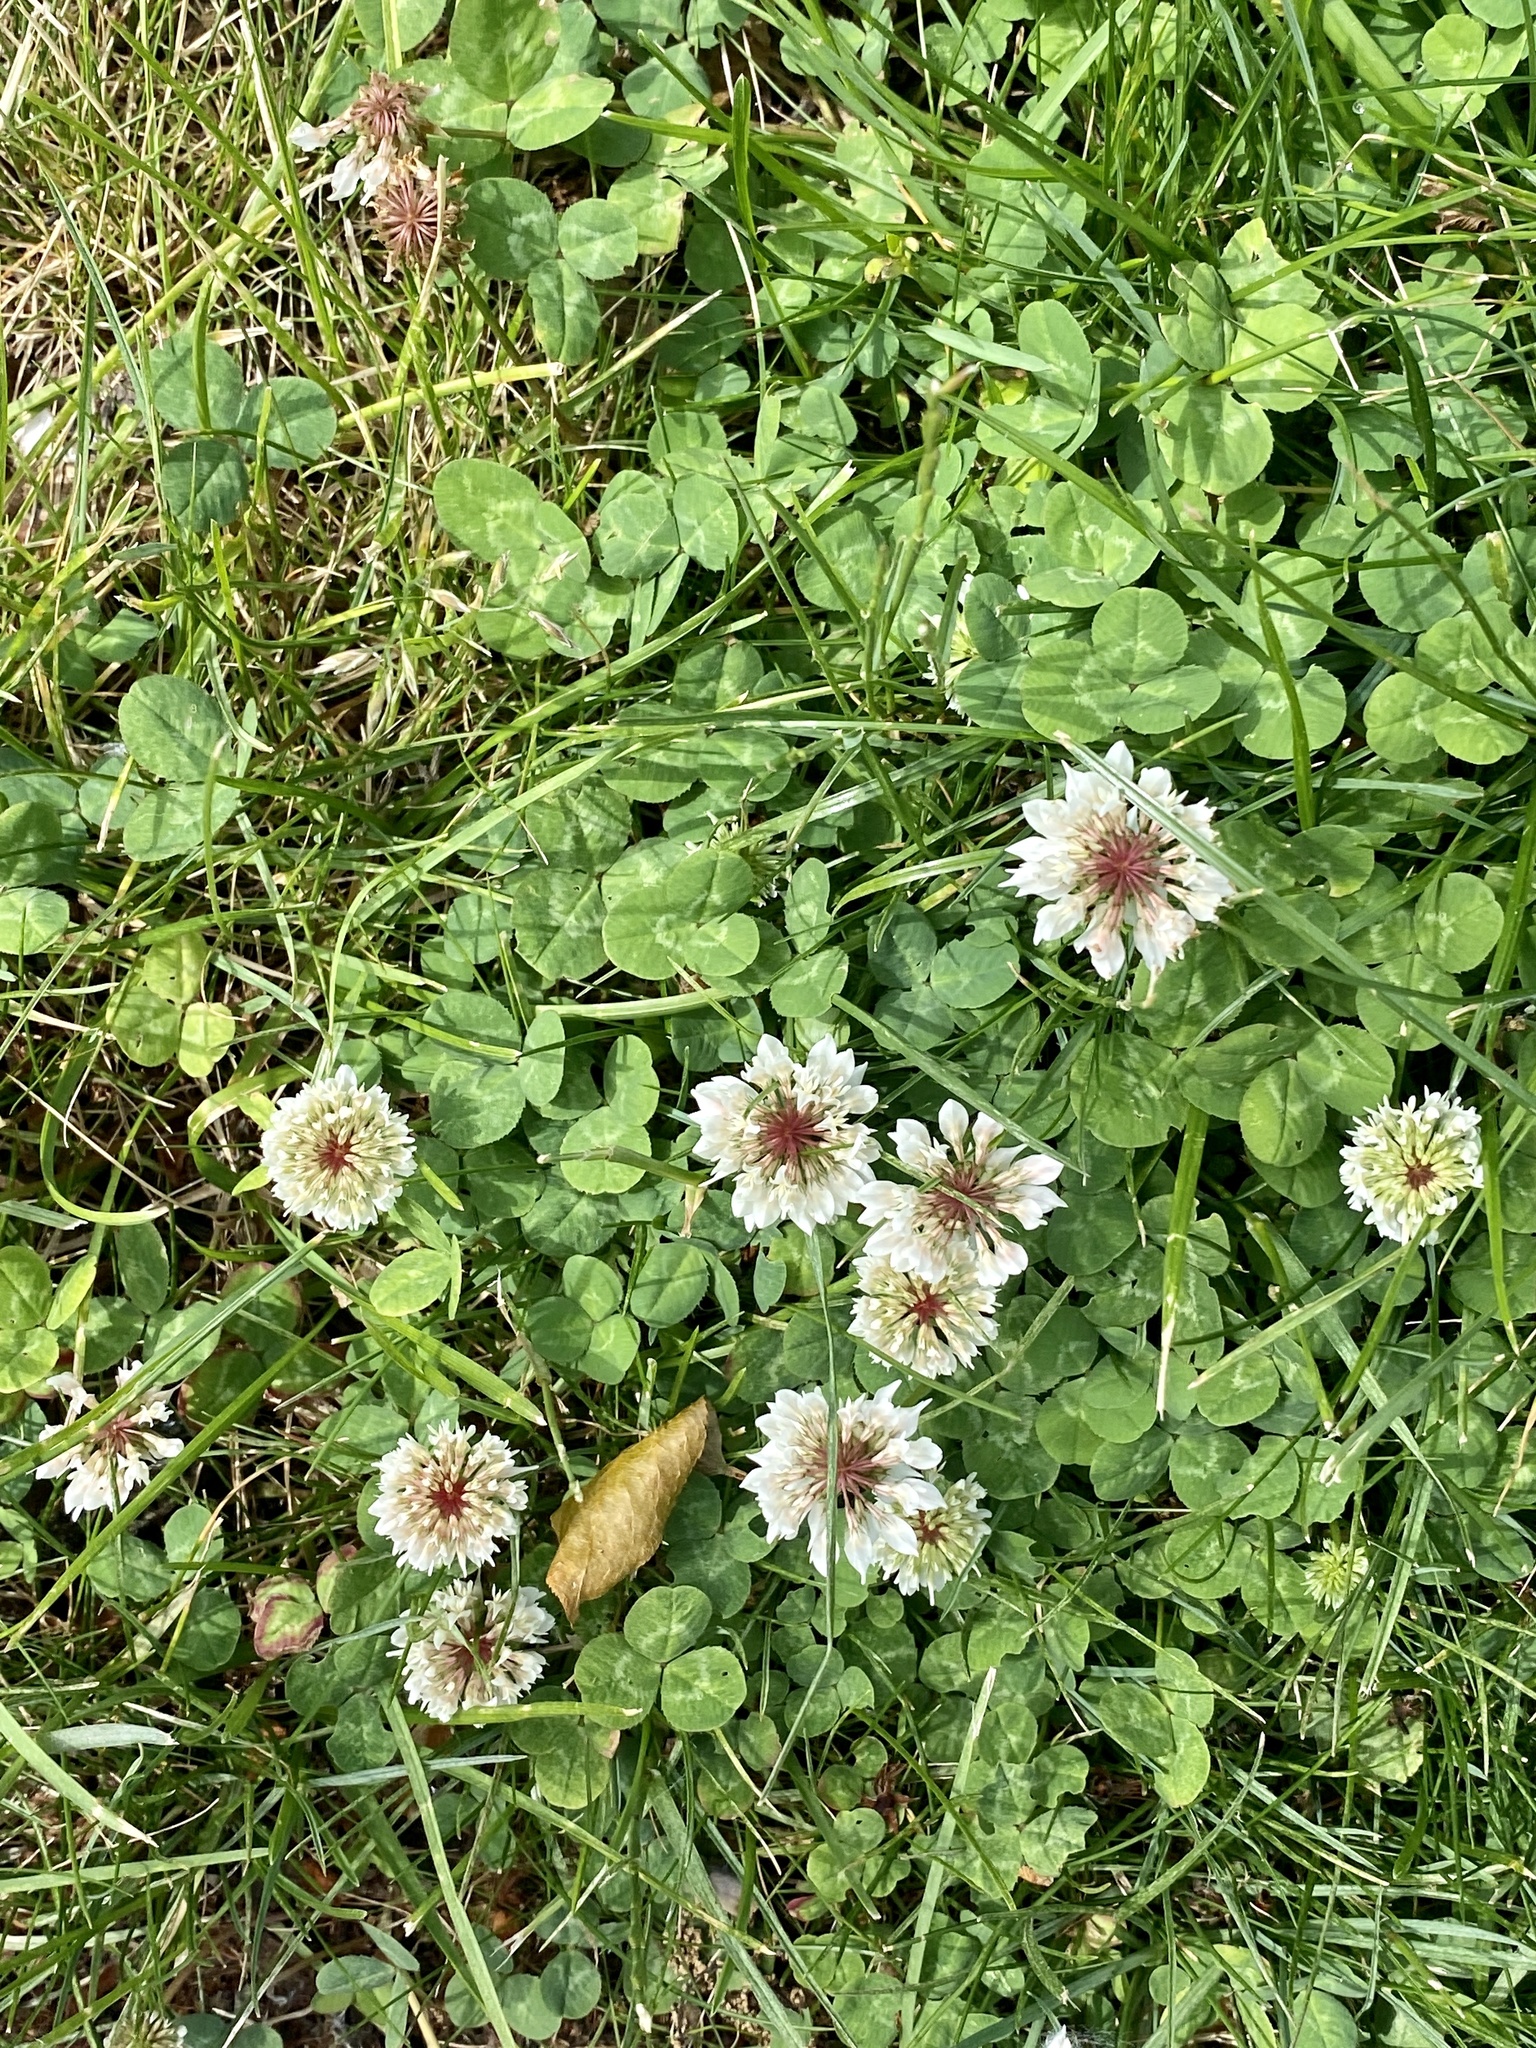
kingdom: Plantae
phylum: Tracheophyta
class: Magnoliopsida
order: Fabales
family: Fabaceae
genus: Trifolium
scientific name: Trifolium repens
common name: White clover
